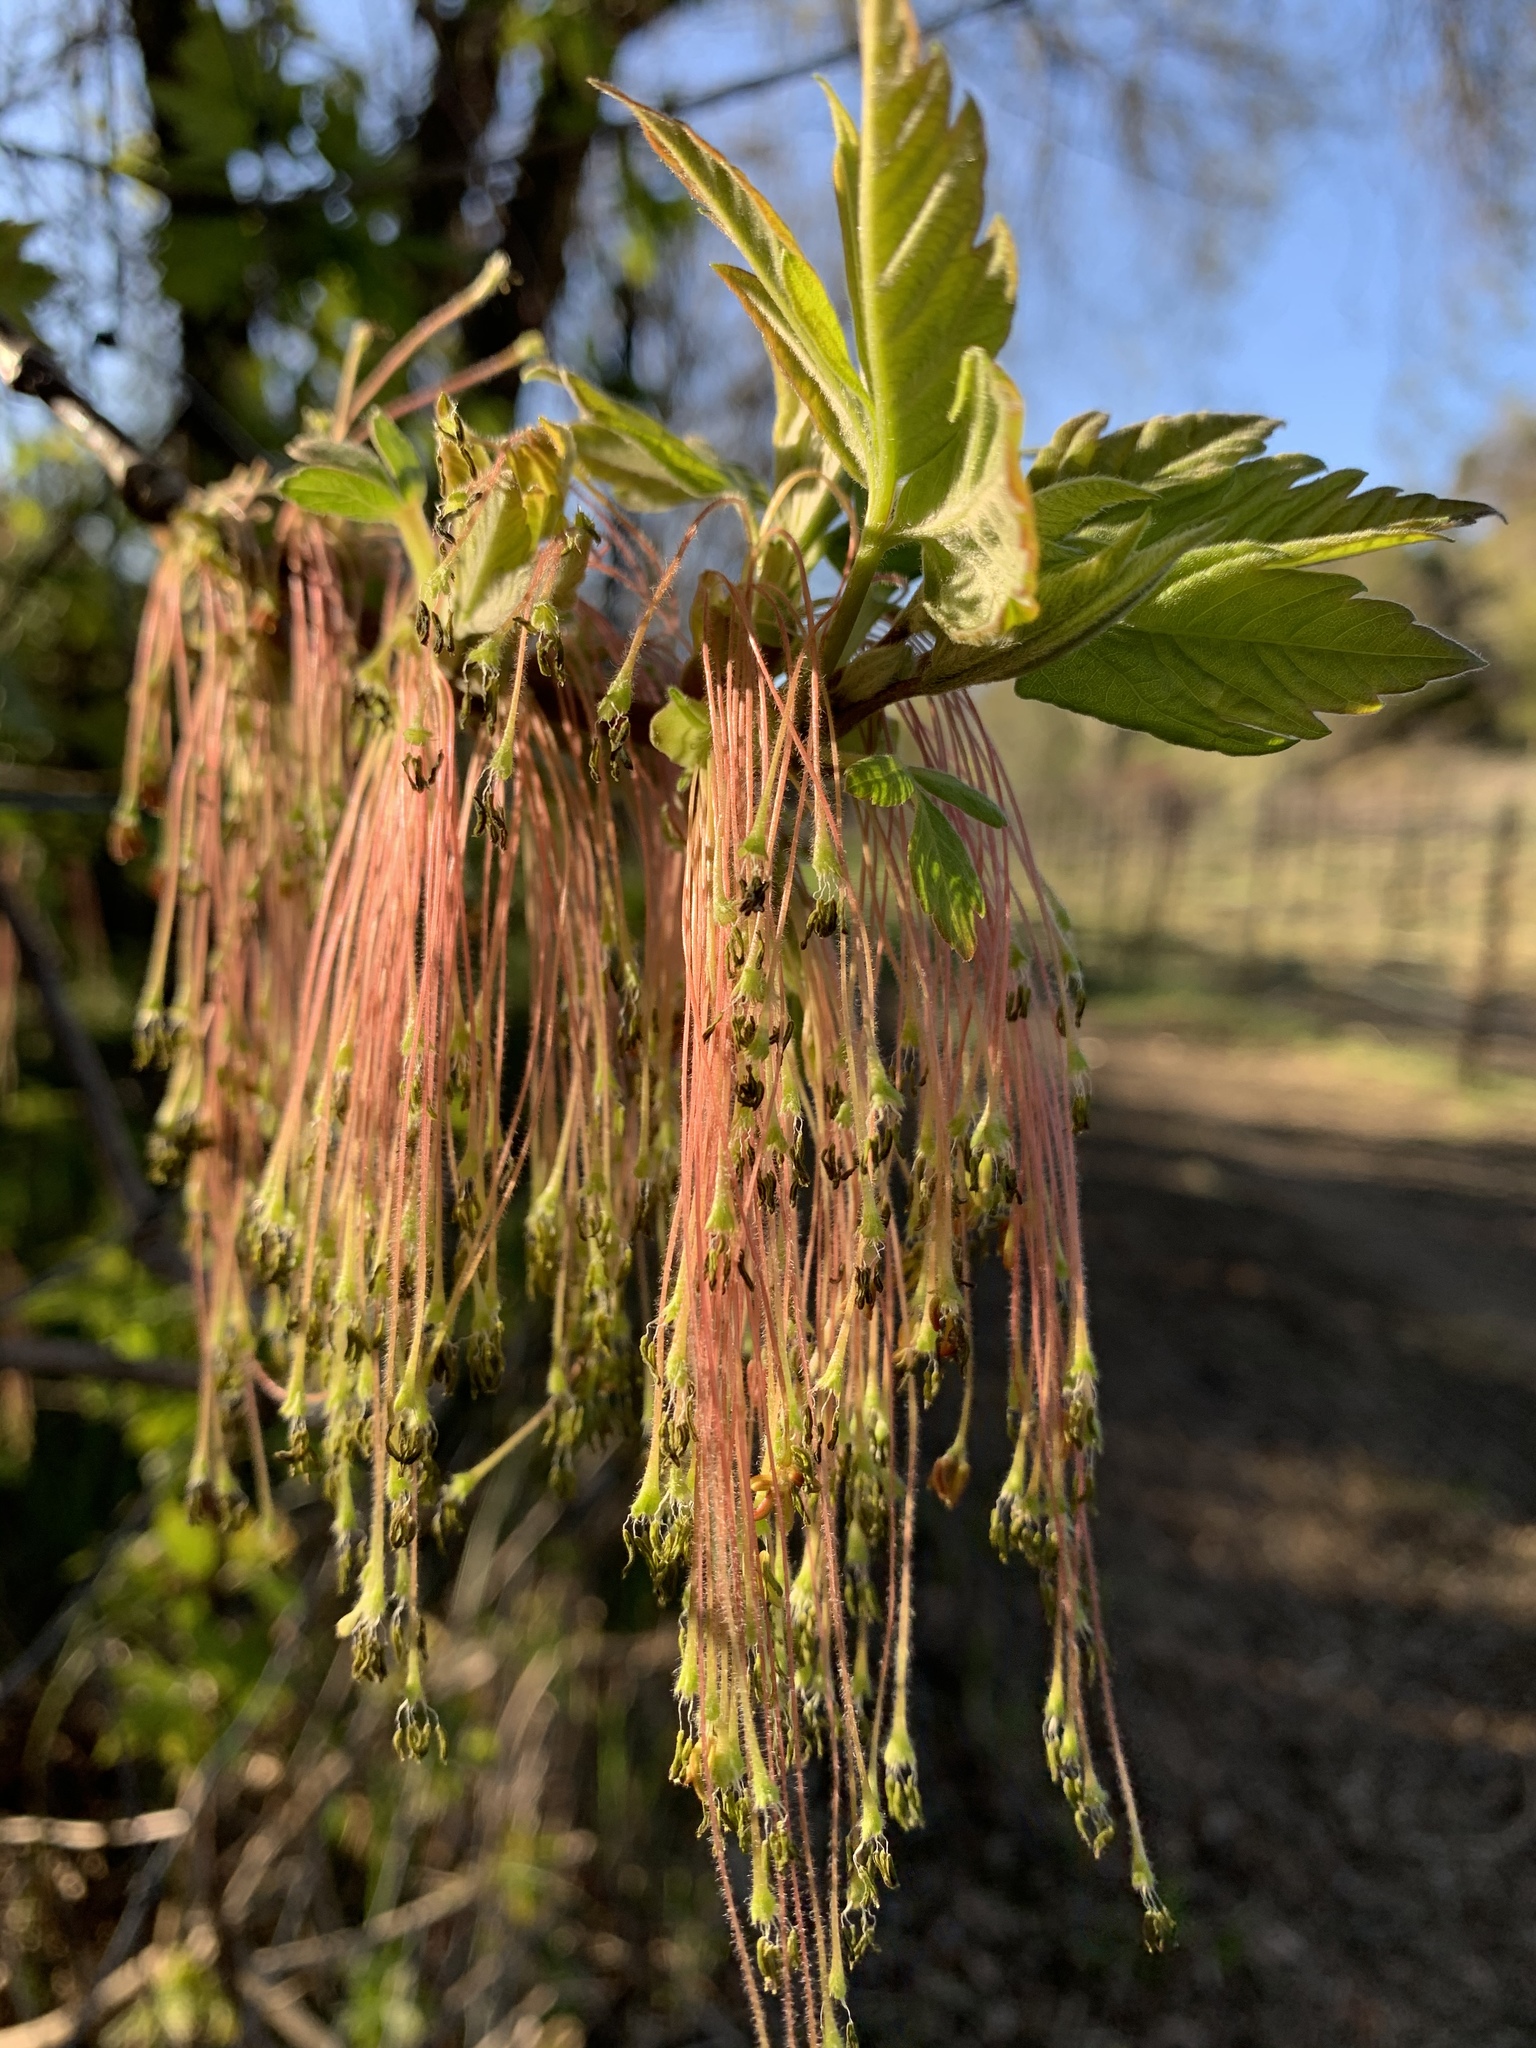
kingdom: Plantae
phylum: Tracheophyta
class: Magnoliopsida
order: Sapindales
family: Sapindaceae
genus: Acer
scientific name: Acer negundo
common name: Ashleaf maple
